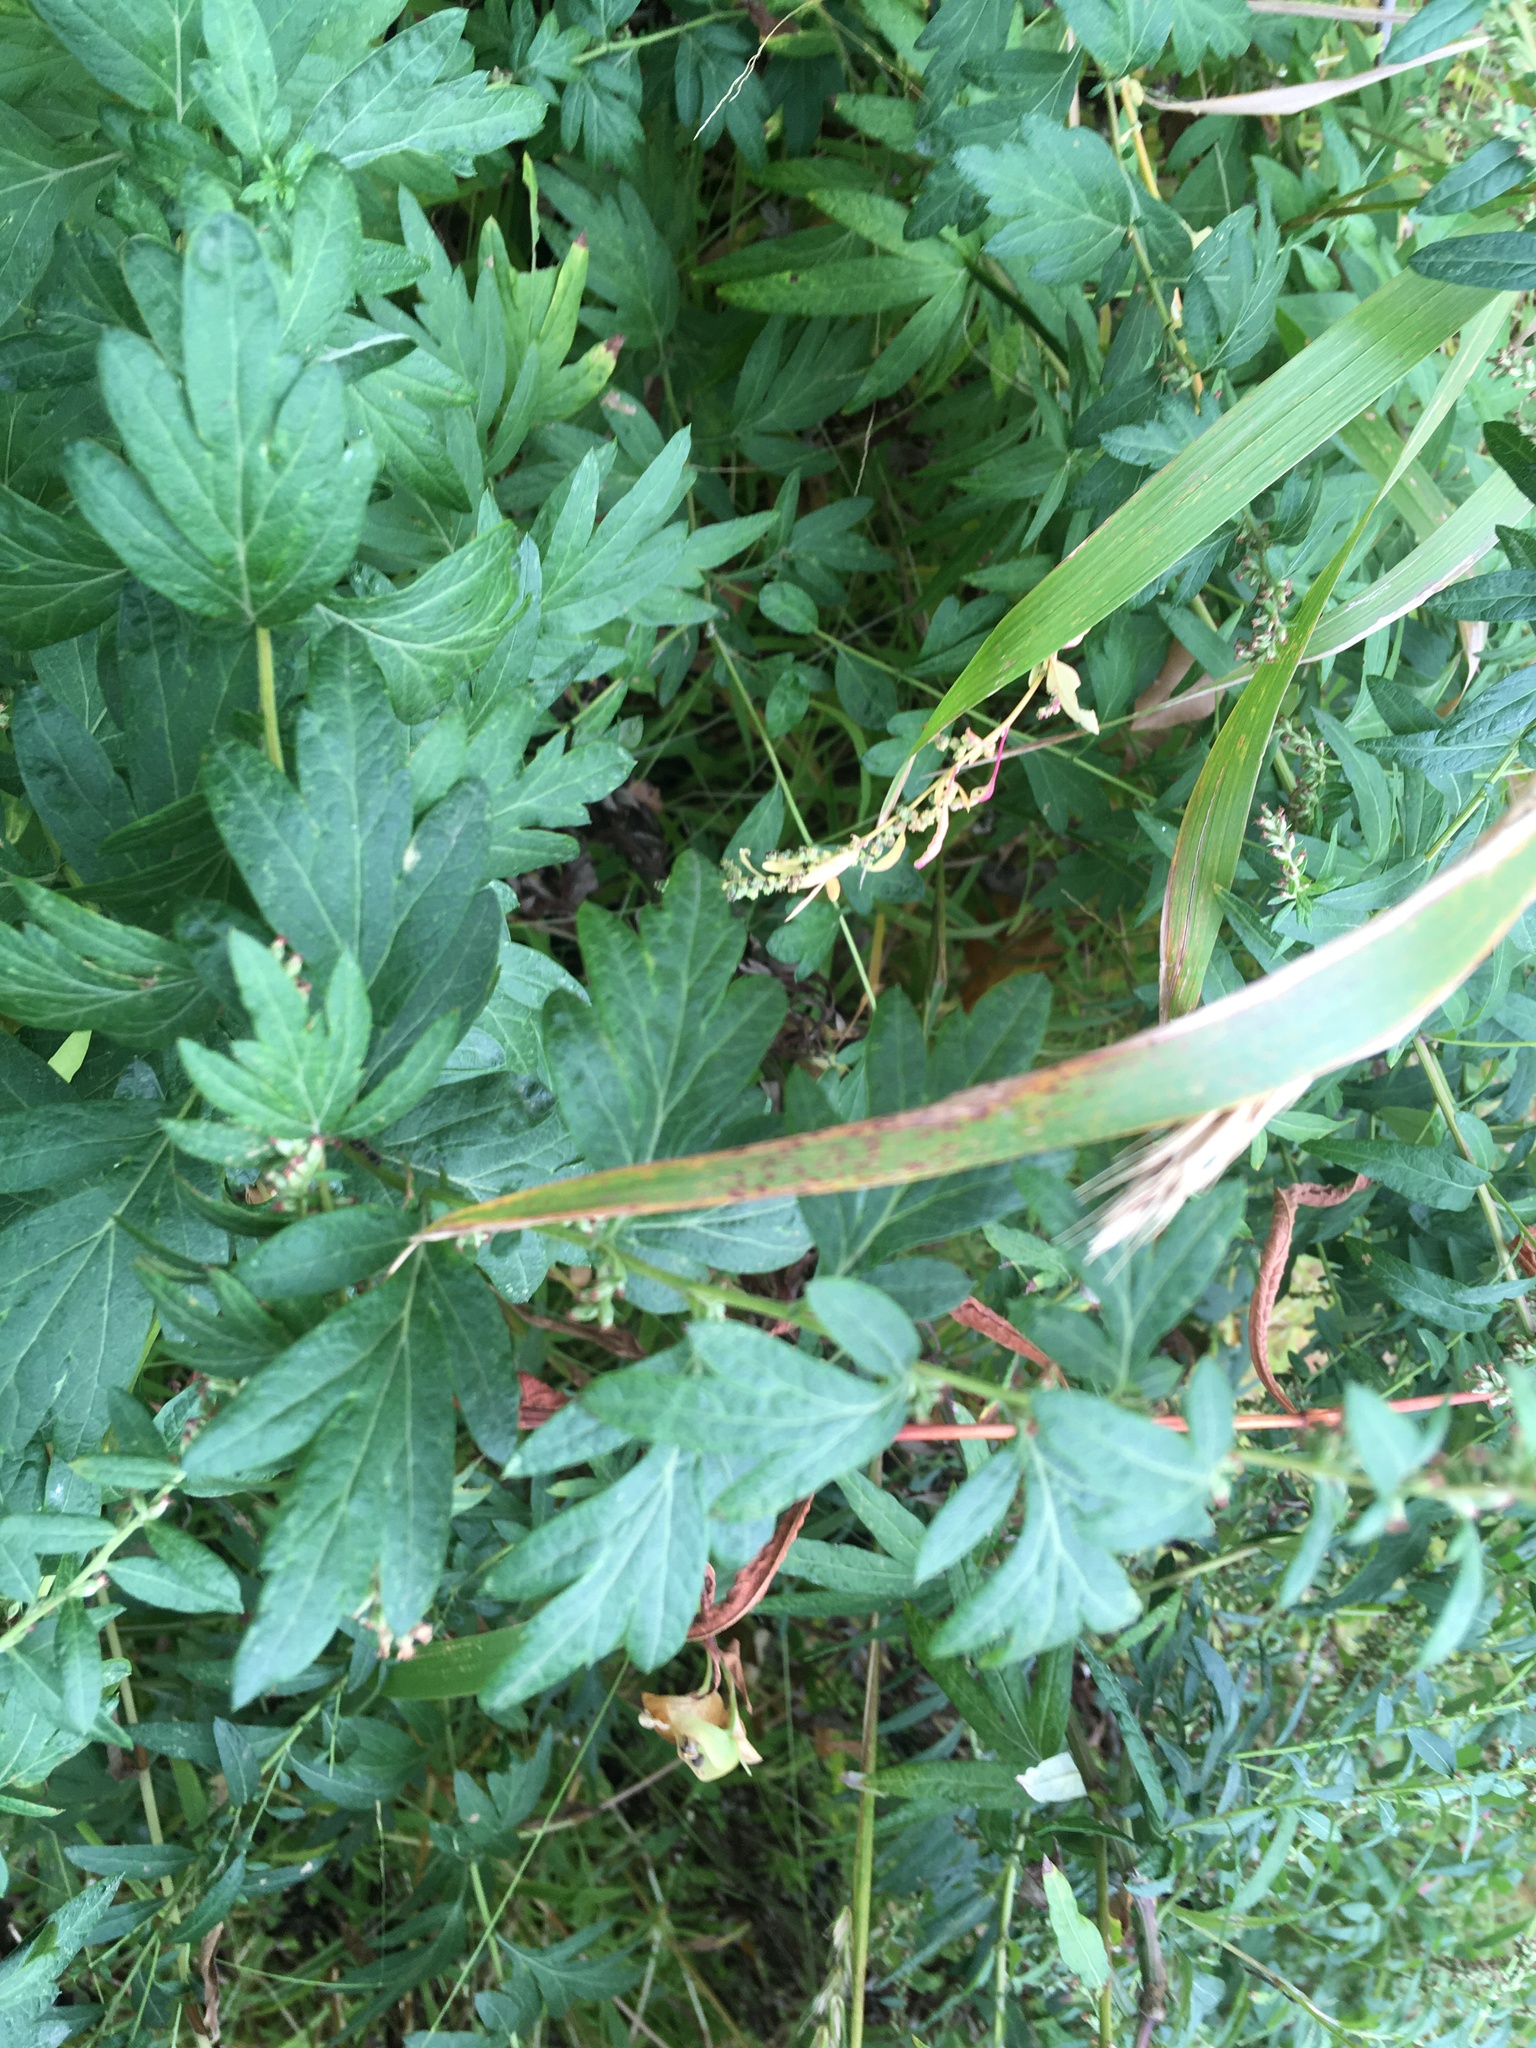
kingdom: Plantae
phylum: Tracheophyta
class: Magnoliopsida
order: Asterales
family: Asteraceae
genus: Artemisia
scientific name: Artemisia vulgaris
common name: Mugwort
